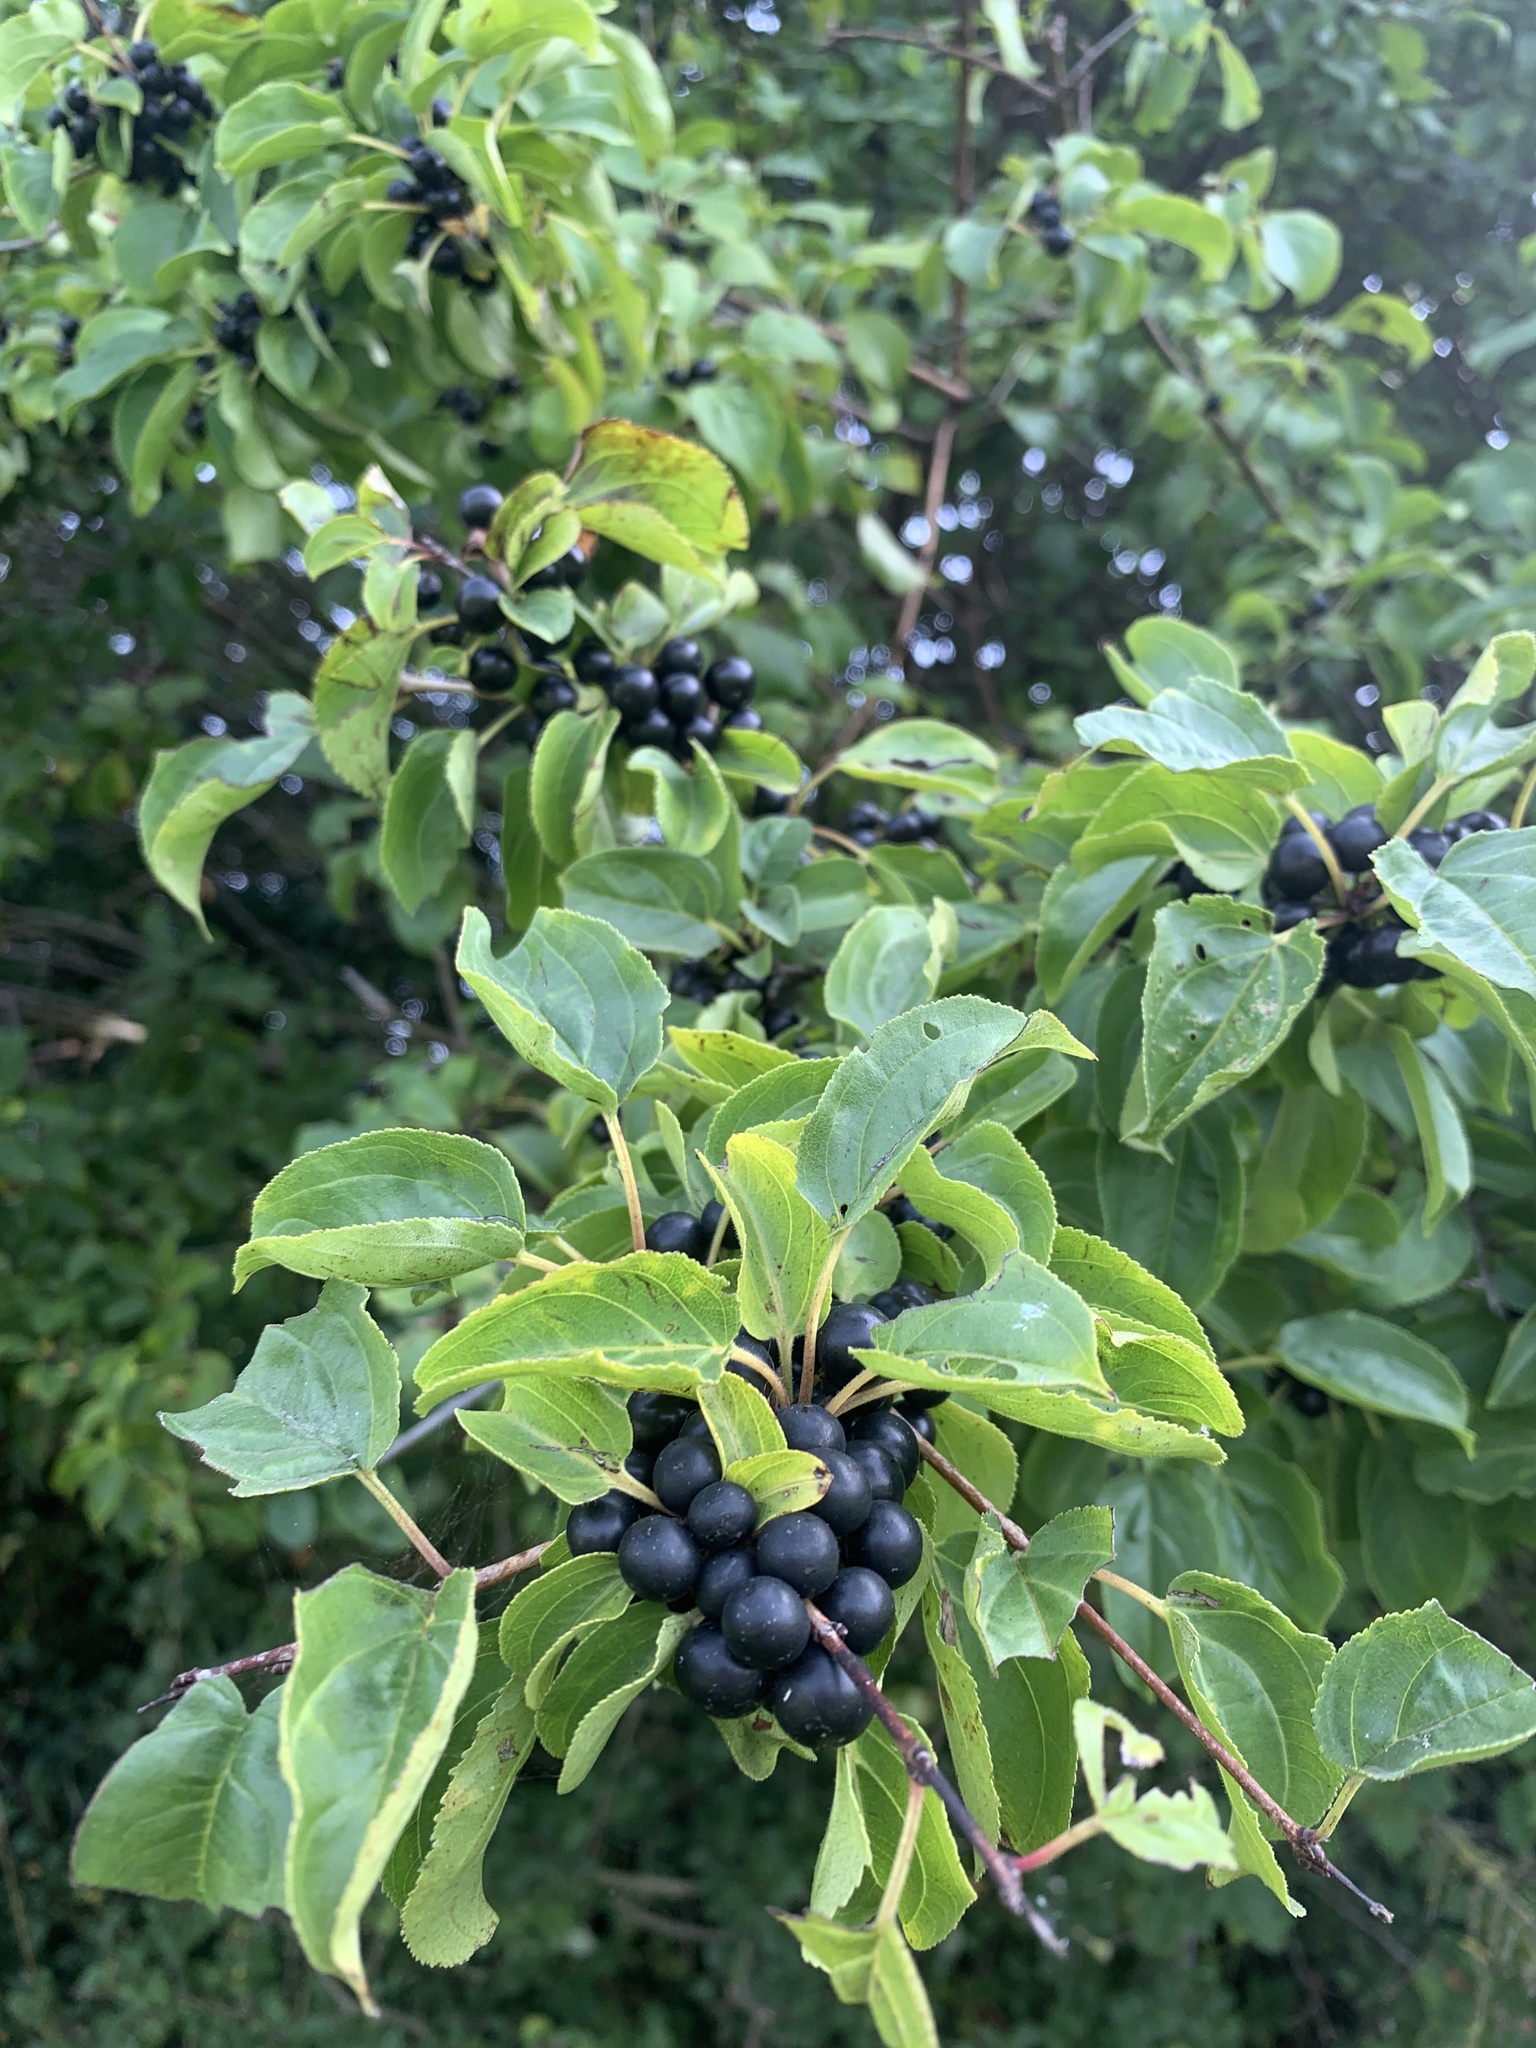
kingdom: Plantae
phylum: Tracheophyta
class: Magnoliopsida
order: Rosales
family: Rhamnaceae
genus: Rhamnus
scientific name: Rhamnus cathartica
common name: Common buckthorn
